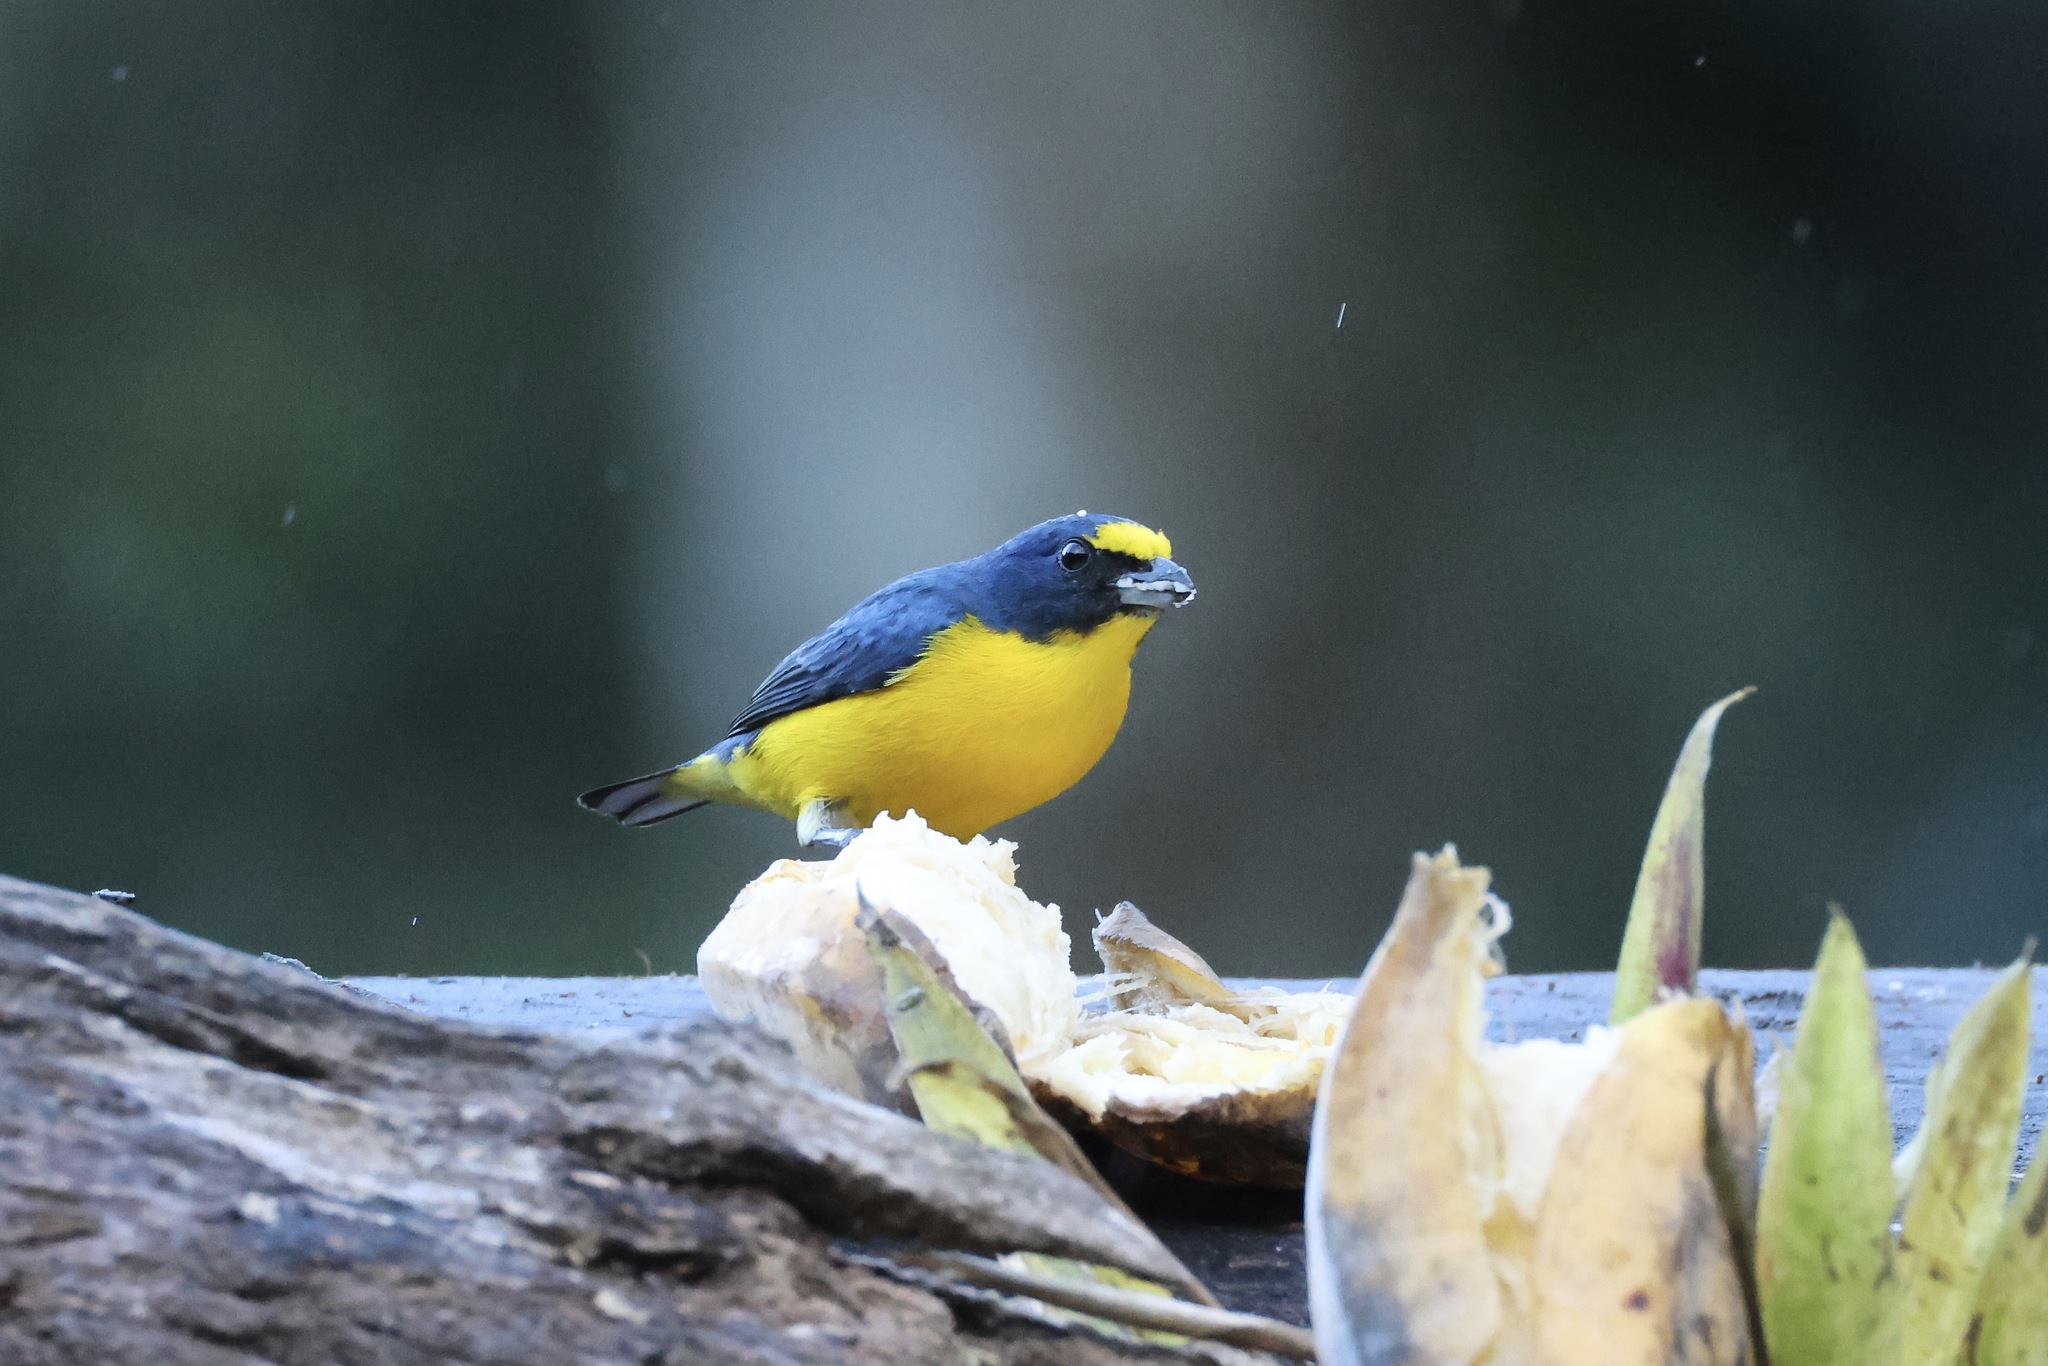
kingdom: Animalia
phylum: Chordata
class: Aves
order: Passeriformes
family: Fringillidae
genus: Euphonia
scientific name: Euphonia hirundinacea
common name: Yellow-throated euphonia
